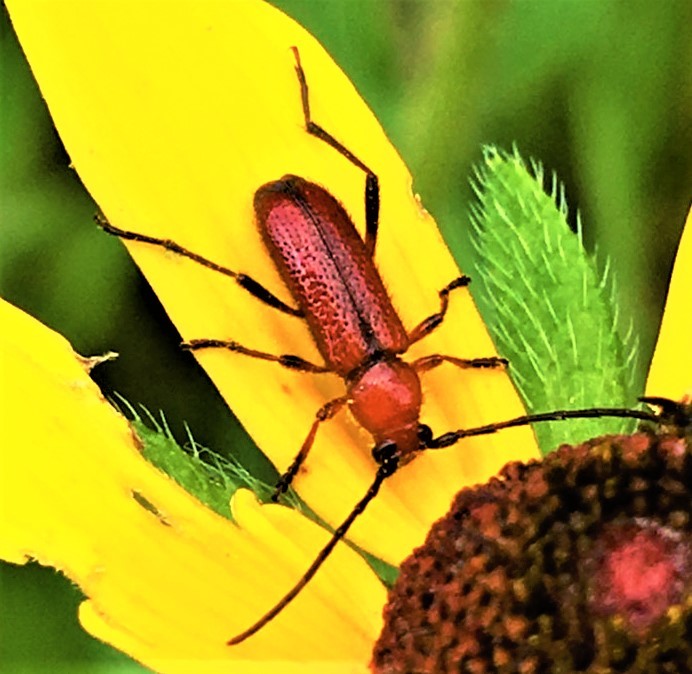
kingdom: Animalia
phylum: Arthropoda
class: Insecta
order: Coleoptera
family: Cerambycidae
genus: Batyle
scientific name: Batyle suturalis
